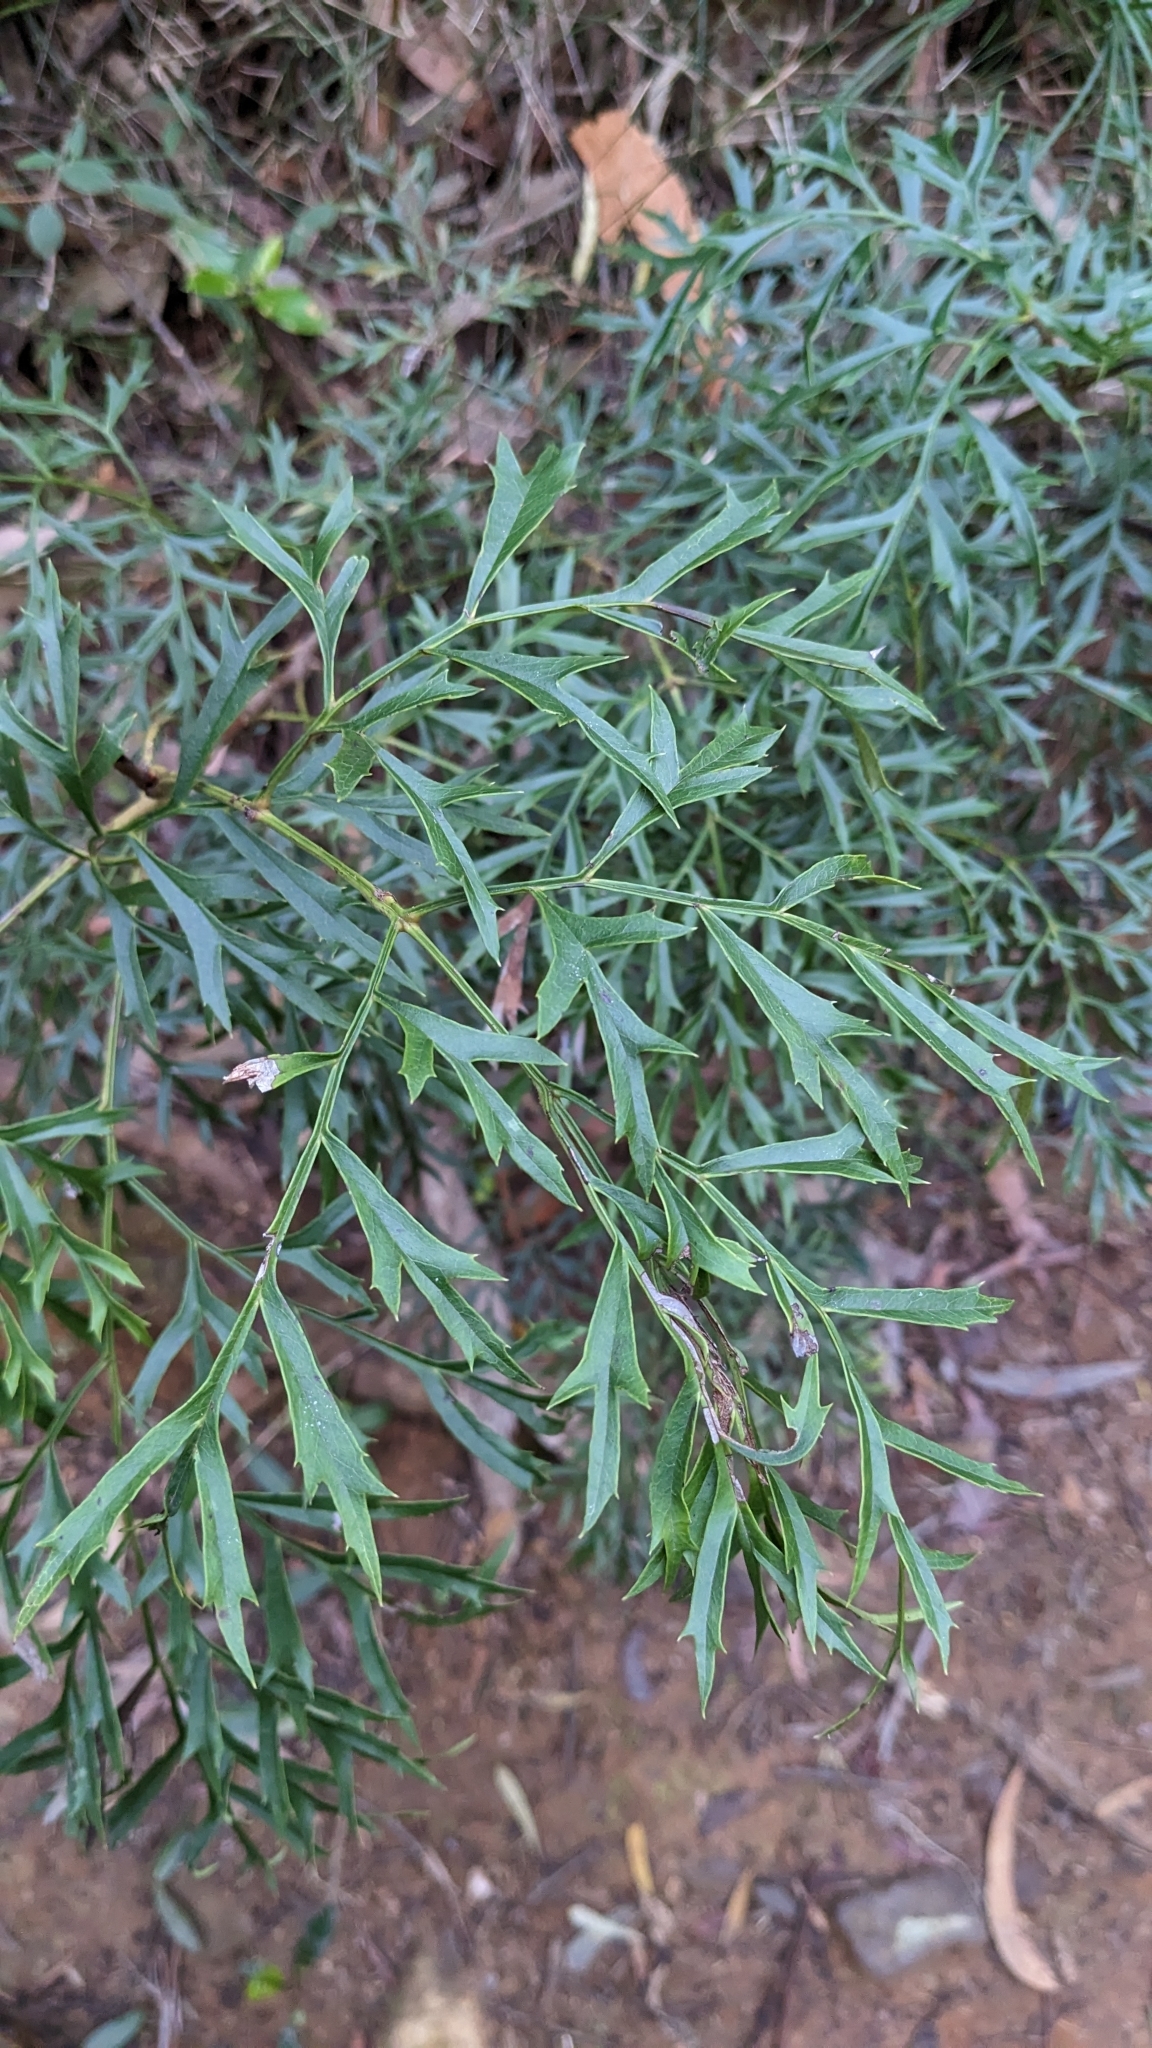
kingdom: Plantae
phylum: Tracheophyta
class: Magnoliopsida
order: Proteales
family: Proteaceae
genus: Lomatia
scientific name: Lomatia silaifolia
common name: Crinklebush
